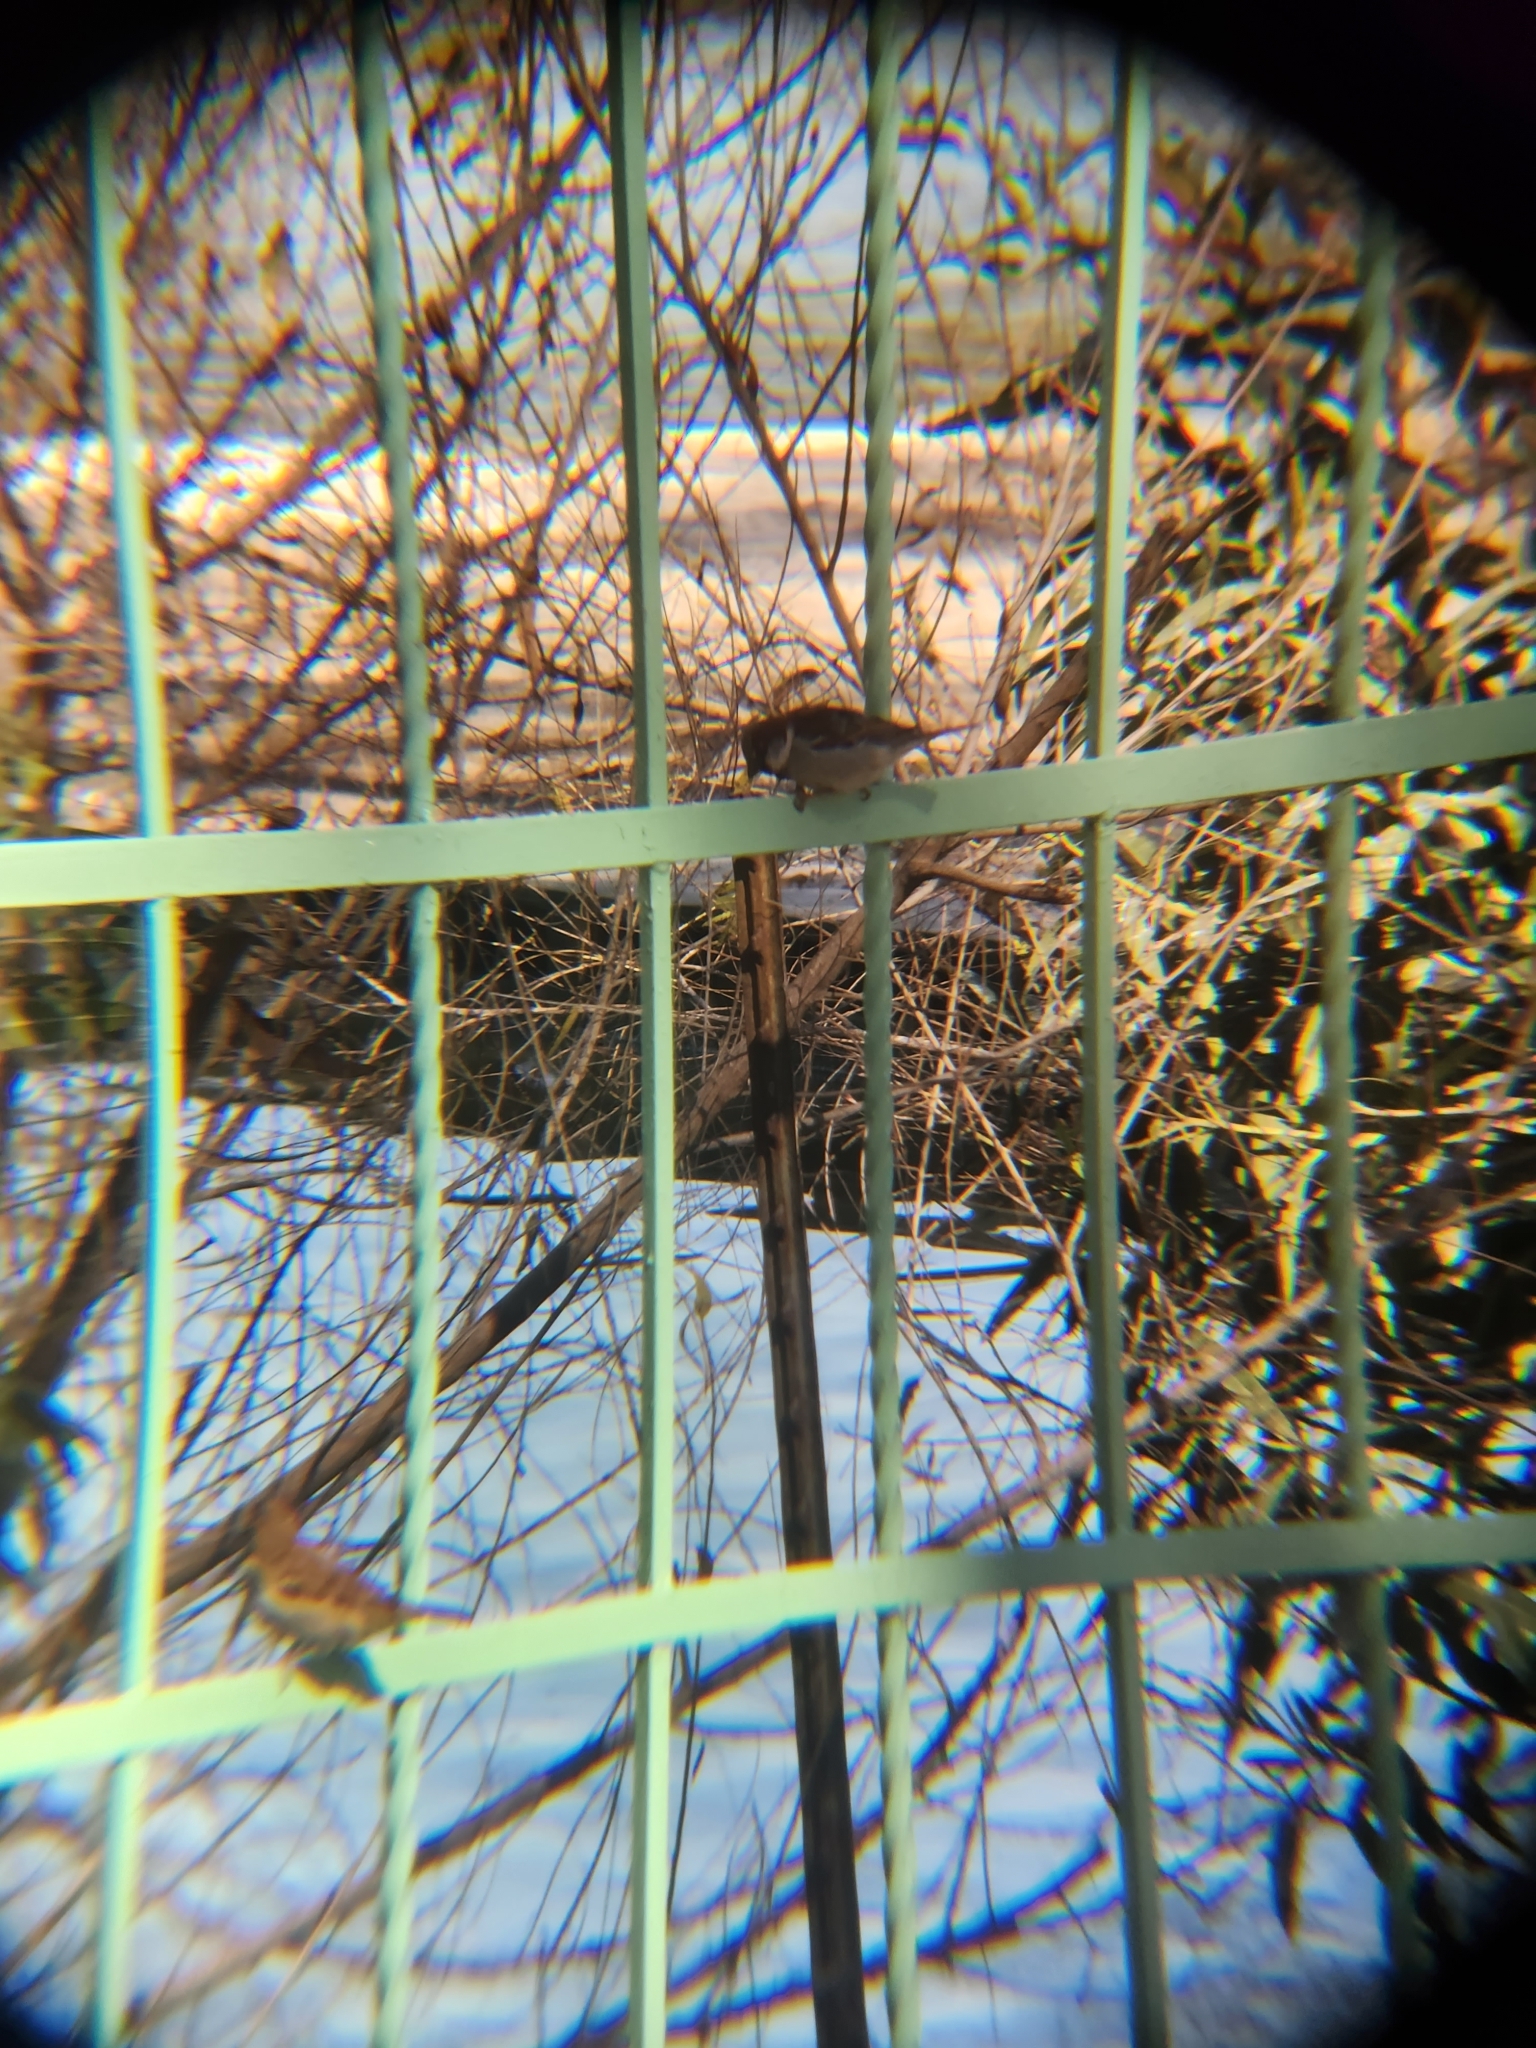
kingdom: Animalia
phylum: Chordata
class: Aves
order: Passeriformes
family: Passeridae
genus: Passer
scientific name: Passer domesticus
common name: House sparrow
